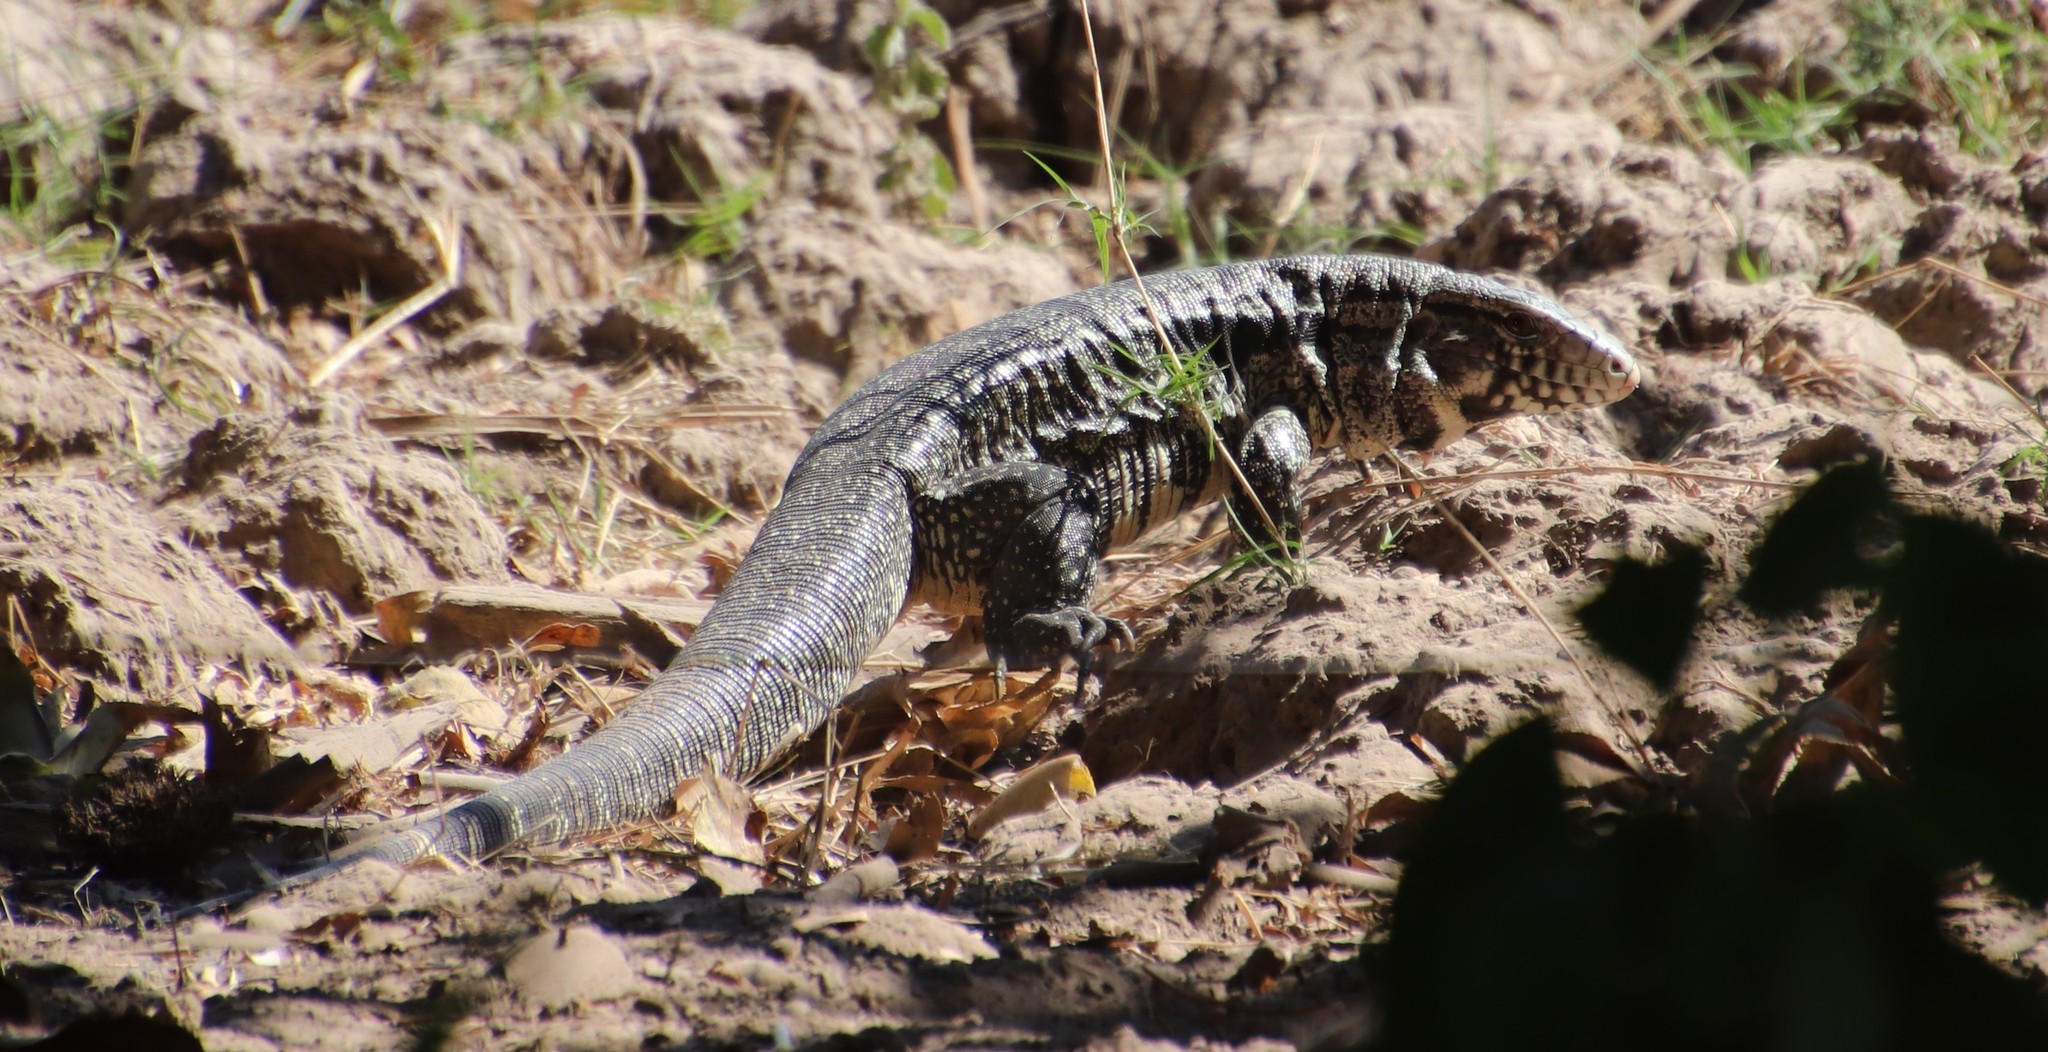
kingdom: Animalia
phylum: Chordata
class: Squamata
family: Teiidae
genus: Salvator
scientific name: Salvator merianae
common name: Argentine black and white tegu
